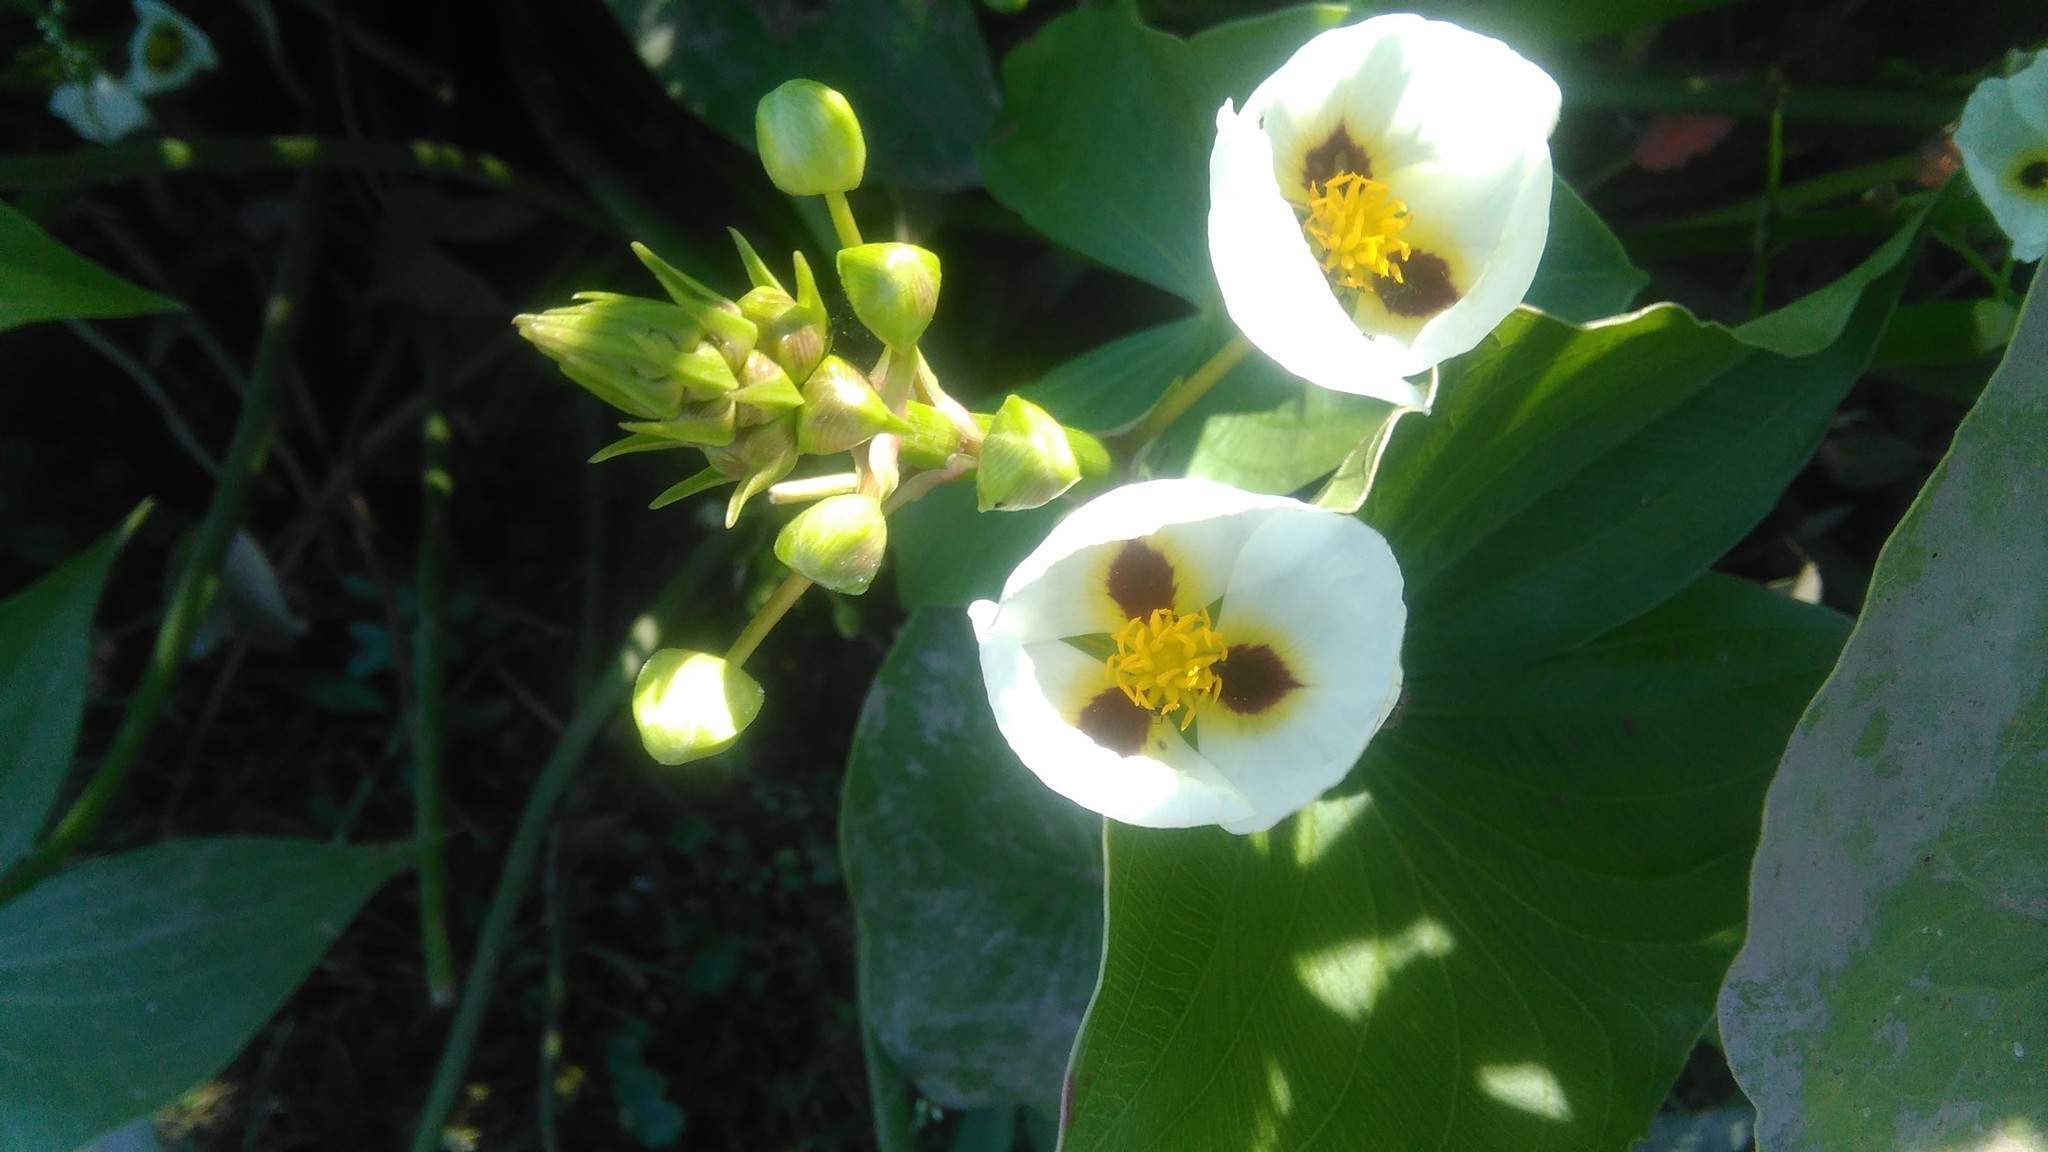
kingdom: Plantae
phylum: Tracheophyta
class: Liliopsida
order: Alismatales
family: Alismataceae
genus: Sagittaria
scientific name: Sagittaria montevidensis
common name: Giant arrowhead
